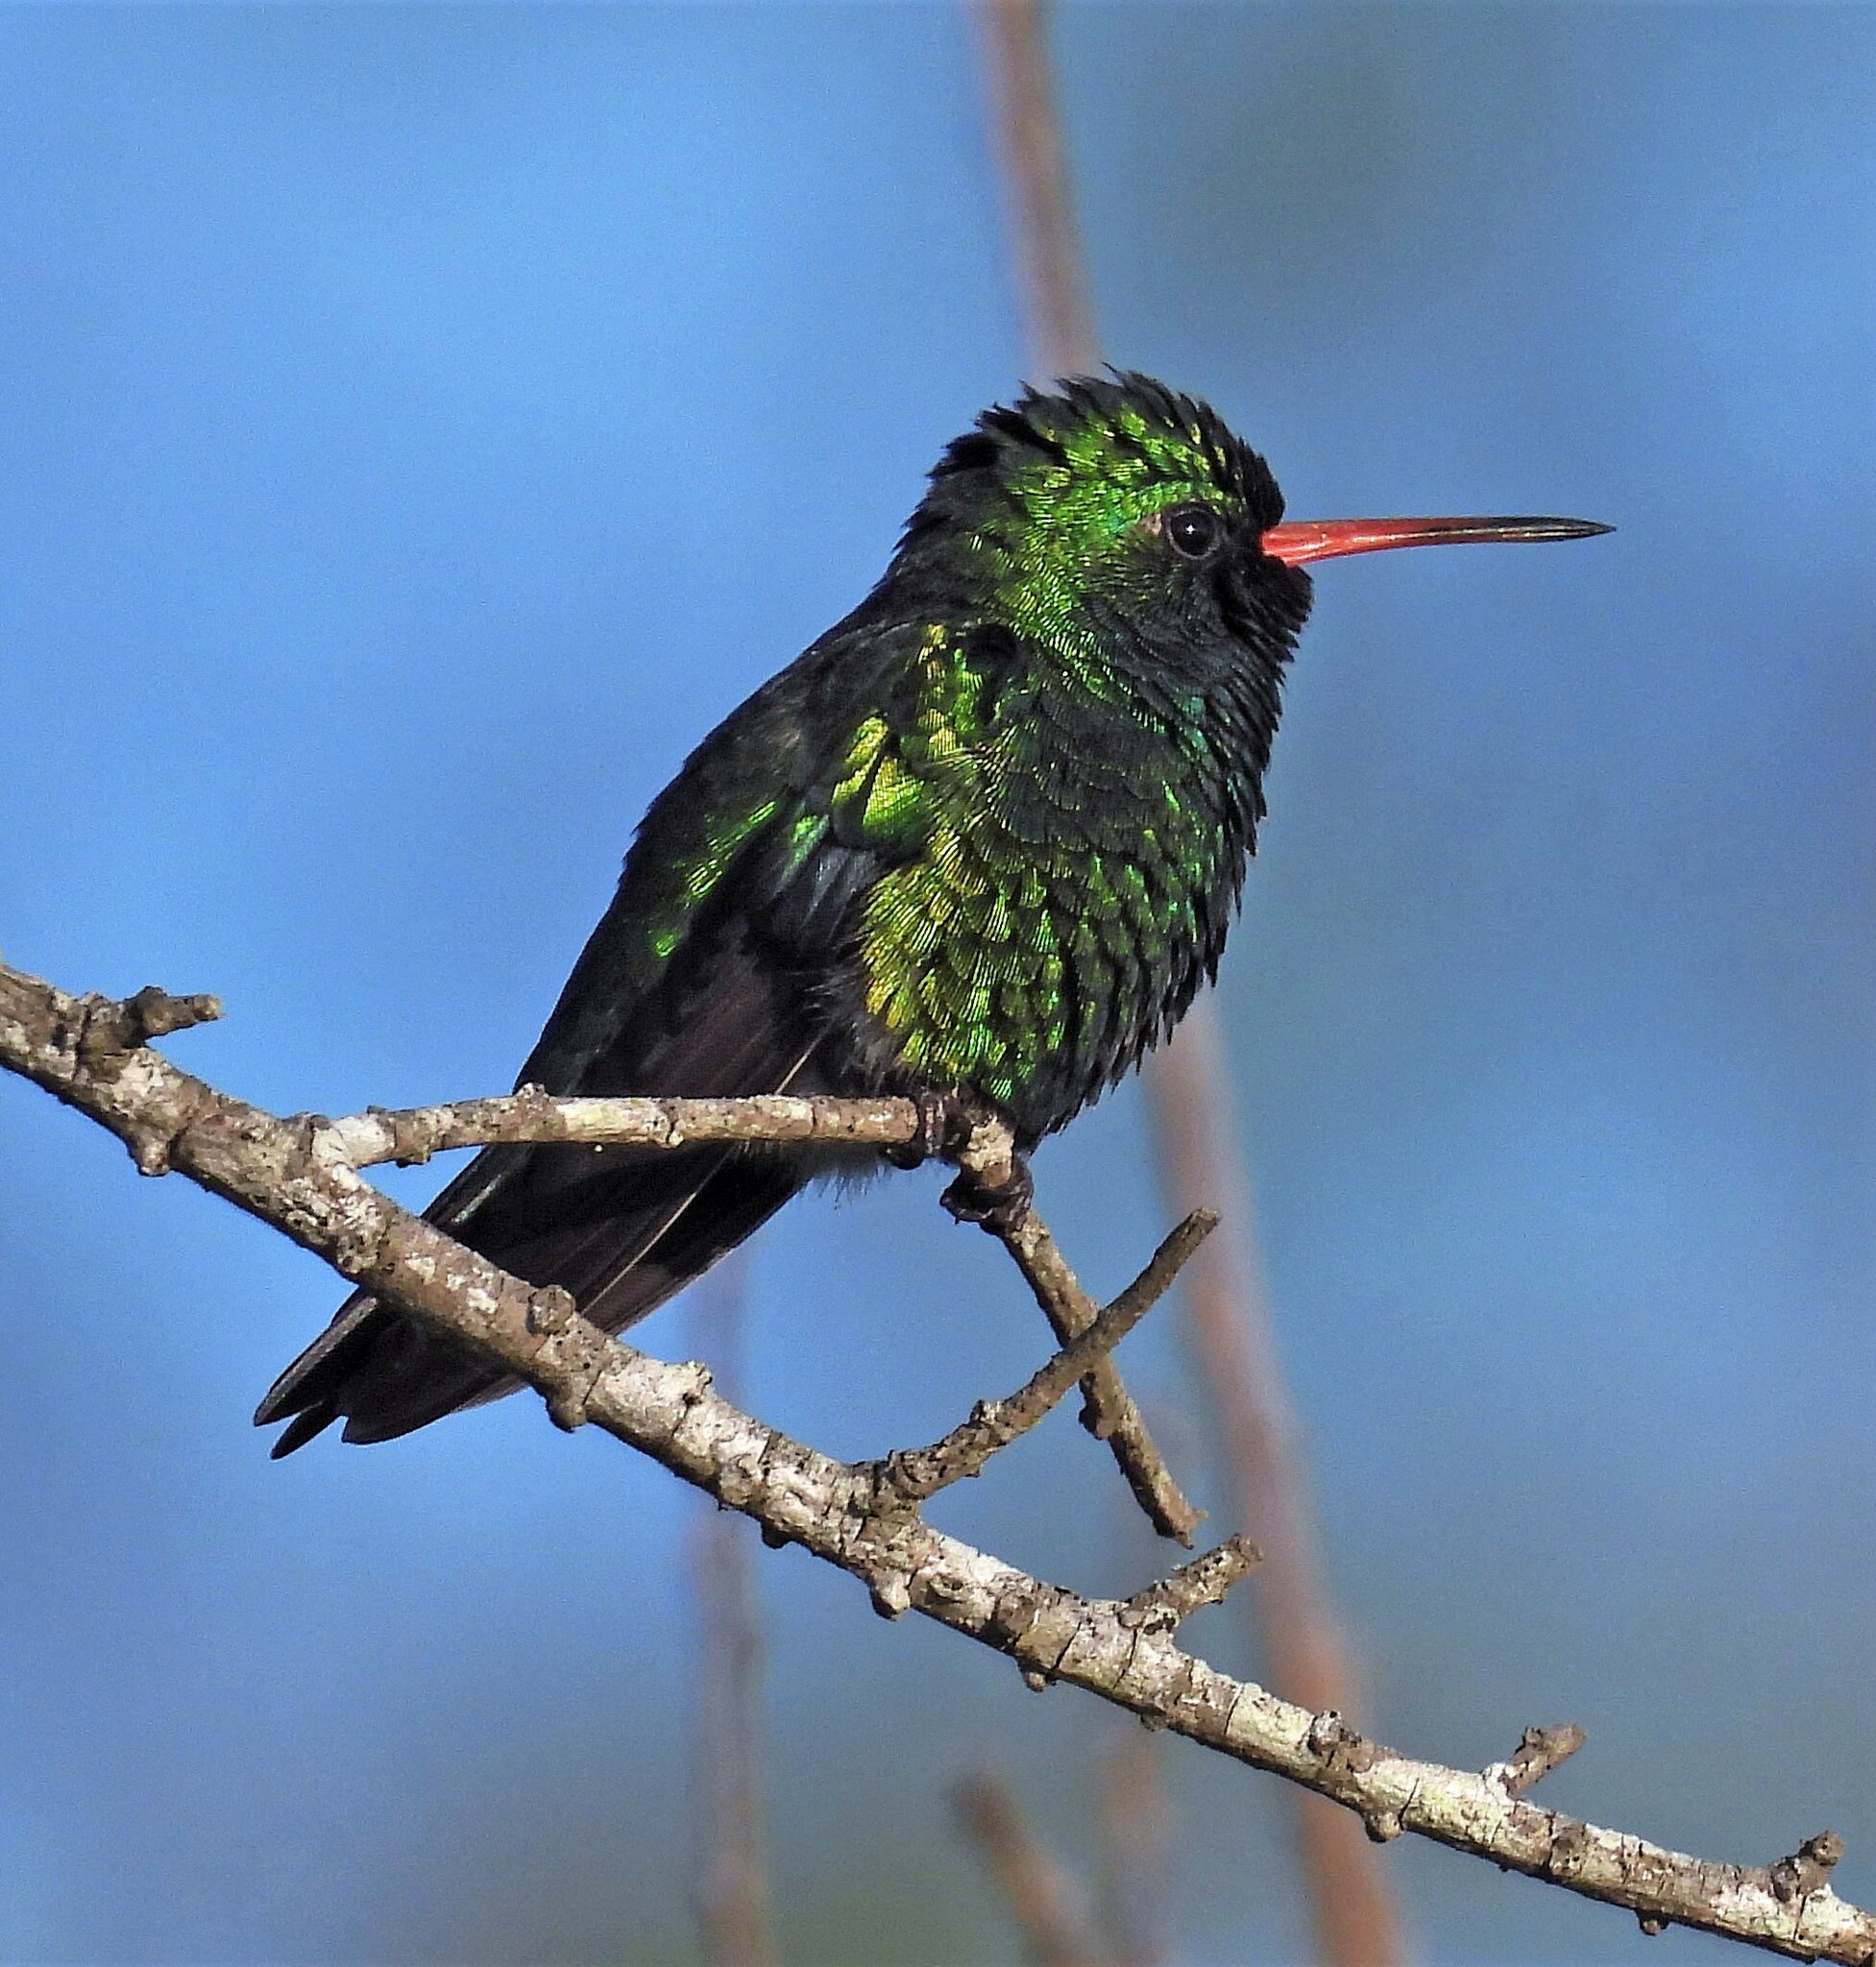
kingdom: Animalia
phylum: Chordata
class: Aves
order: Apodiformes
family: Trochilidae
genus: Chlorostilbon
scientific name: Chlorostilbon lucidus
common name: Glittering-bellied emerald
